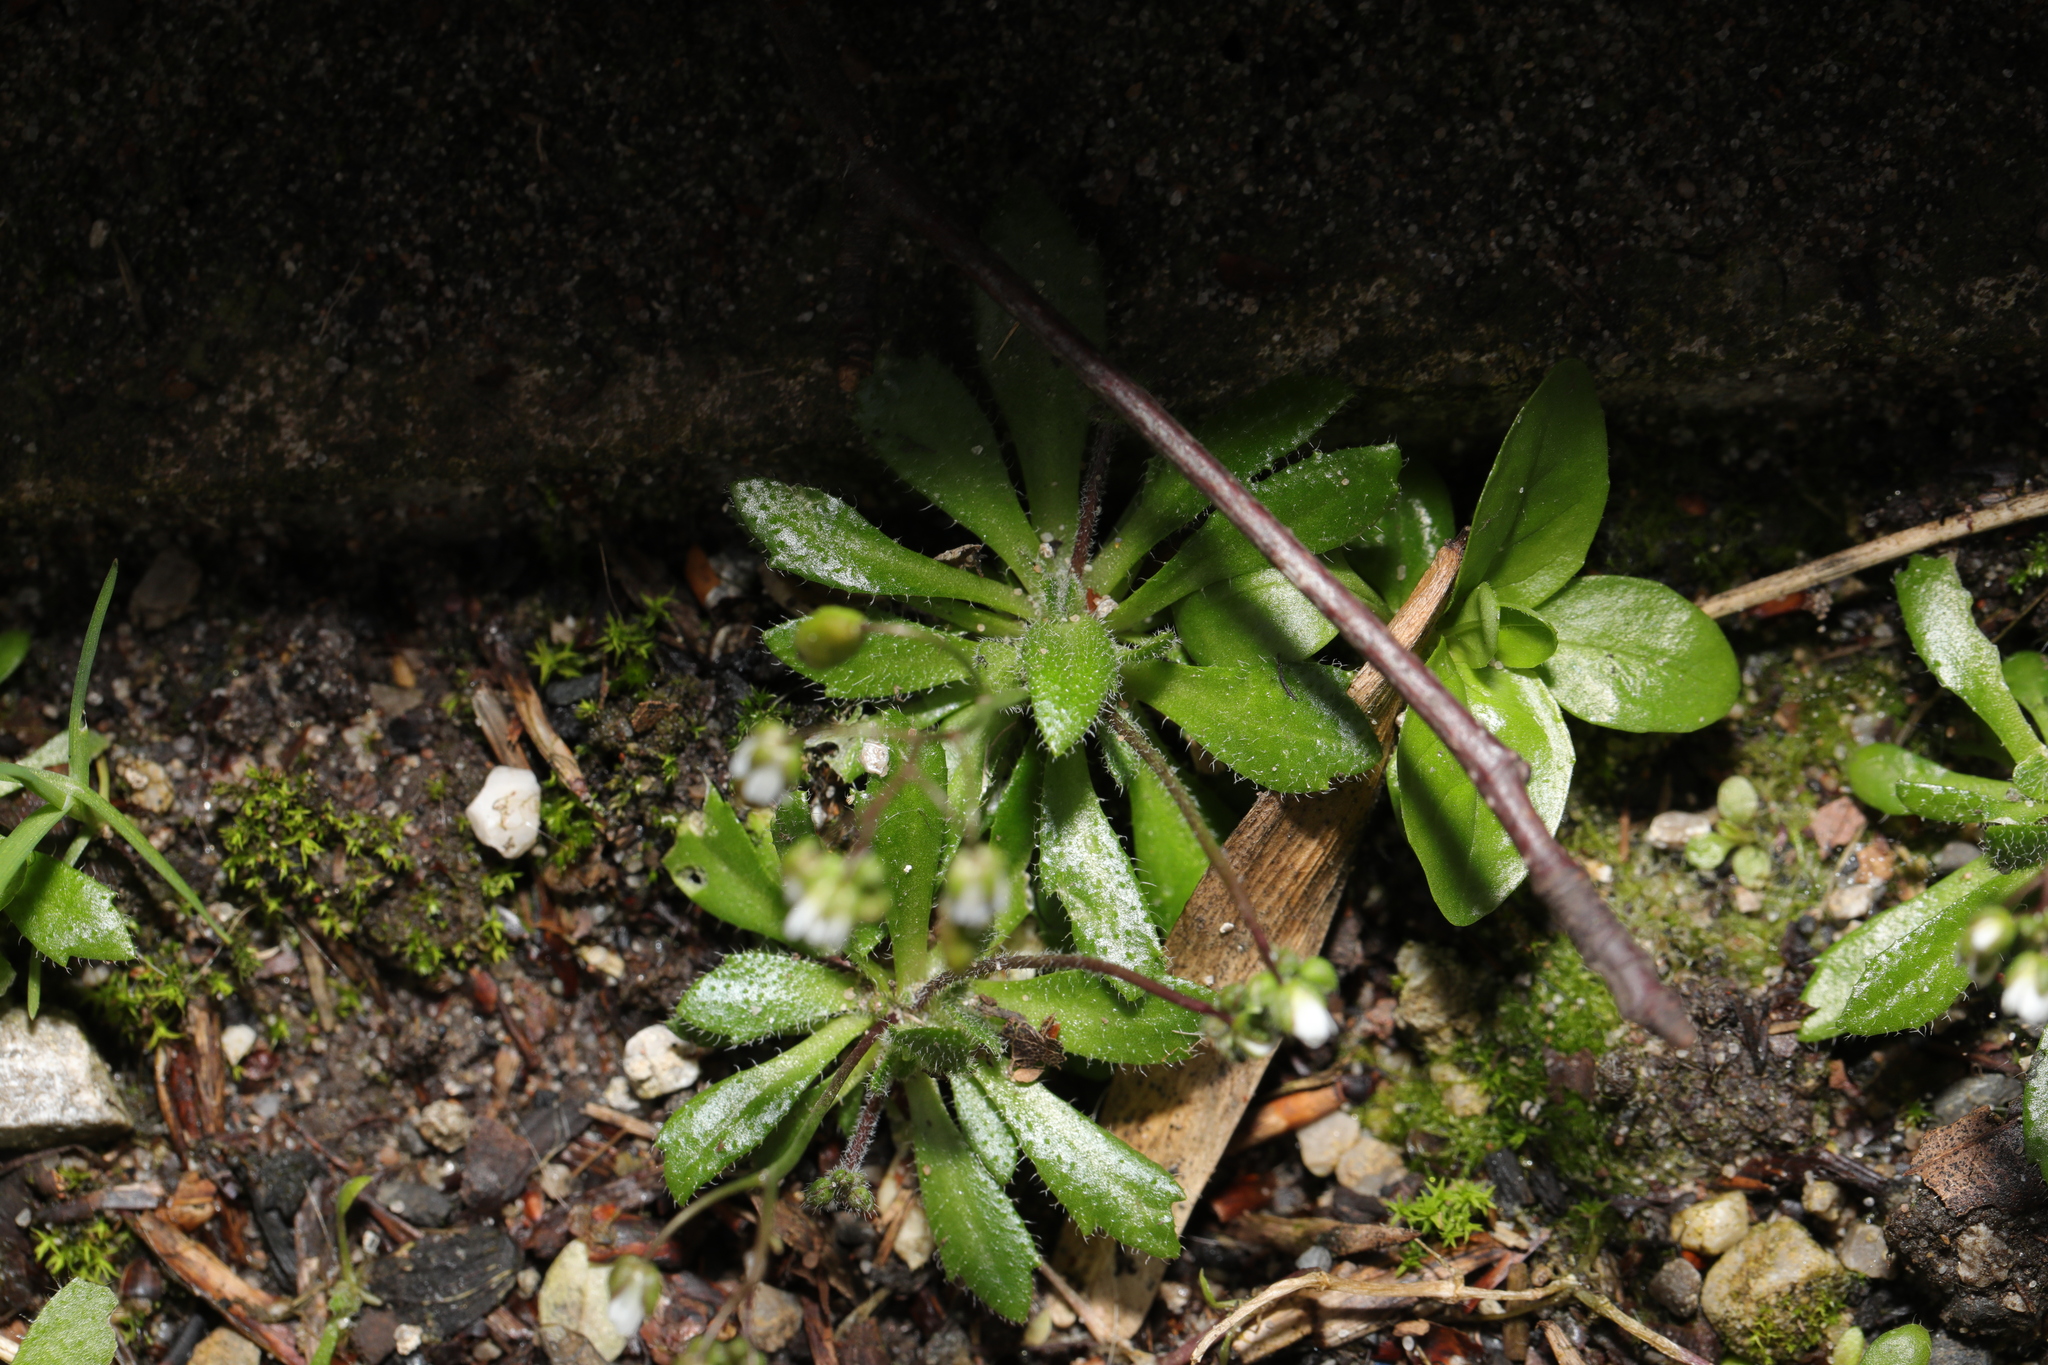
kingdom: Plantae
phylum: Tracheophyta
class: Magnoliopsida
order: Brassicales
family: Brassicaceae
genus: Draba
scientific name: Draba verna
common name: Spring draba
